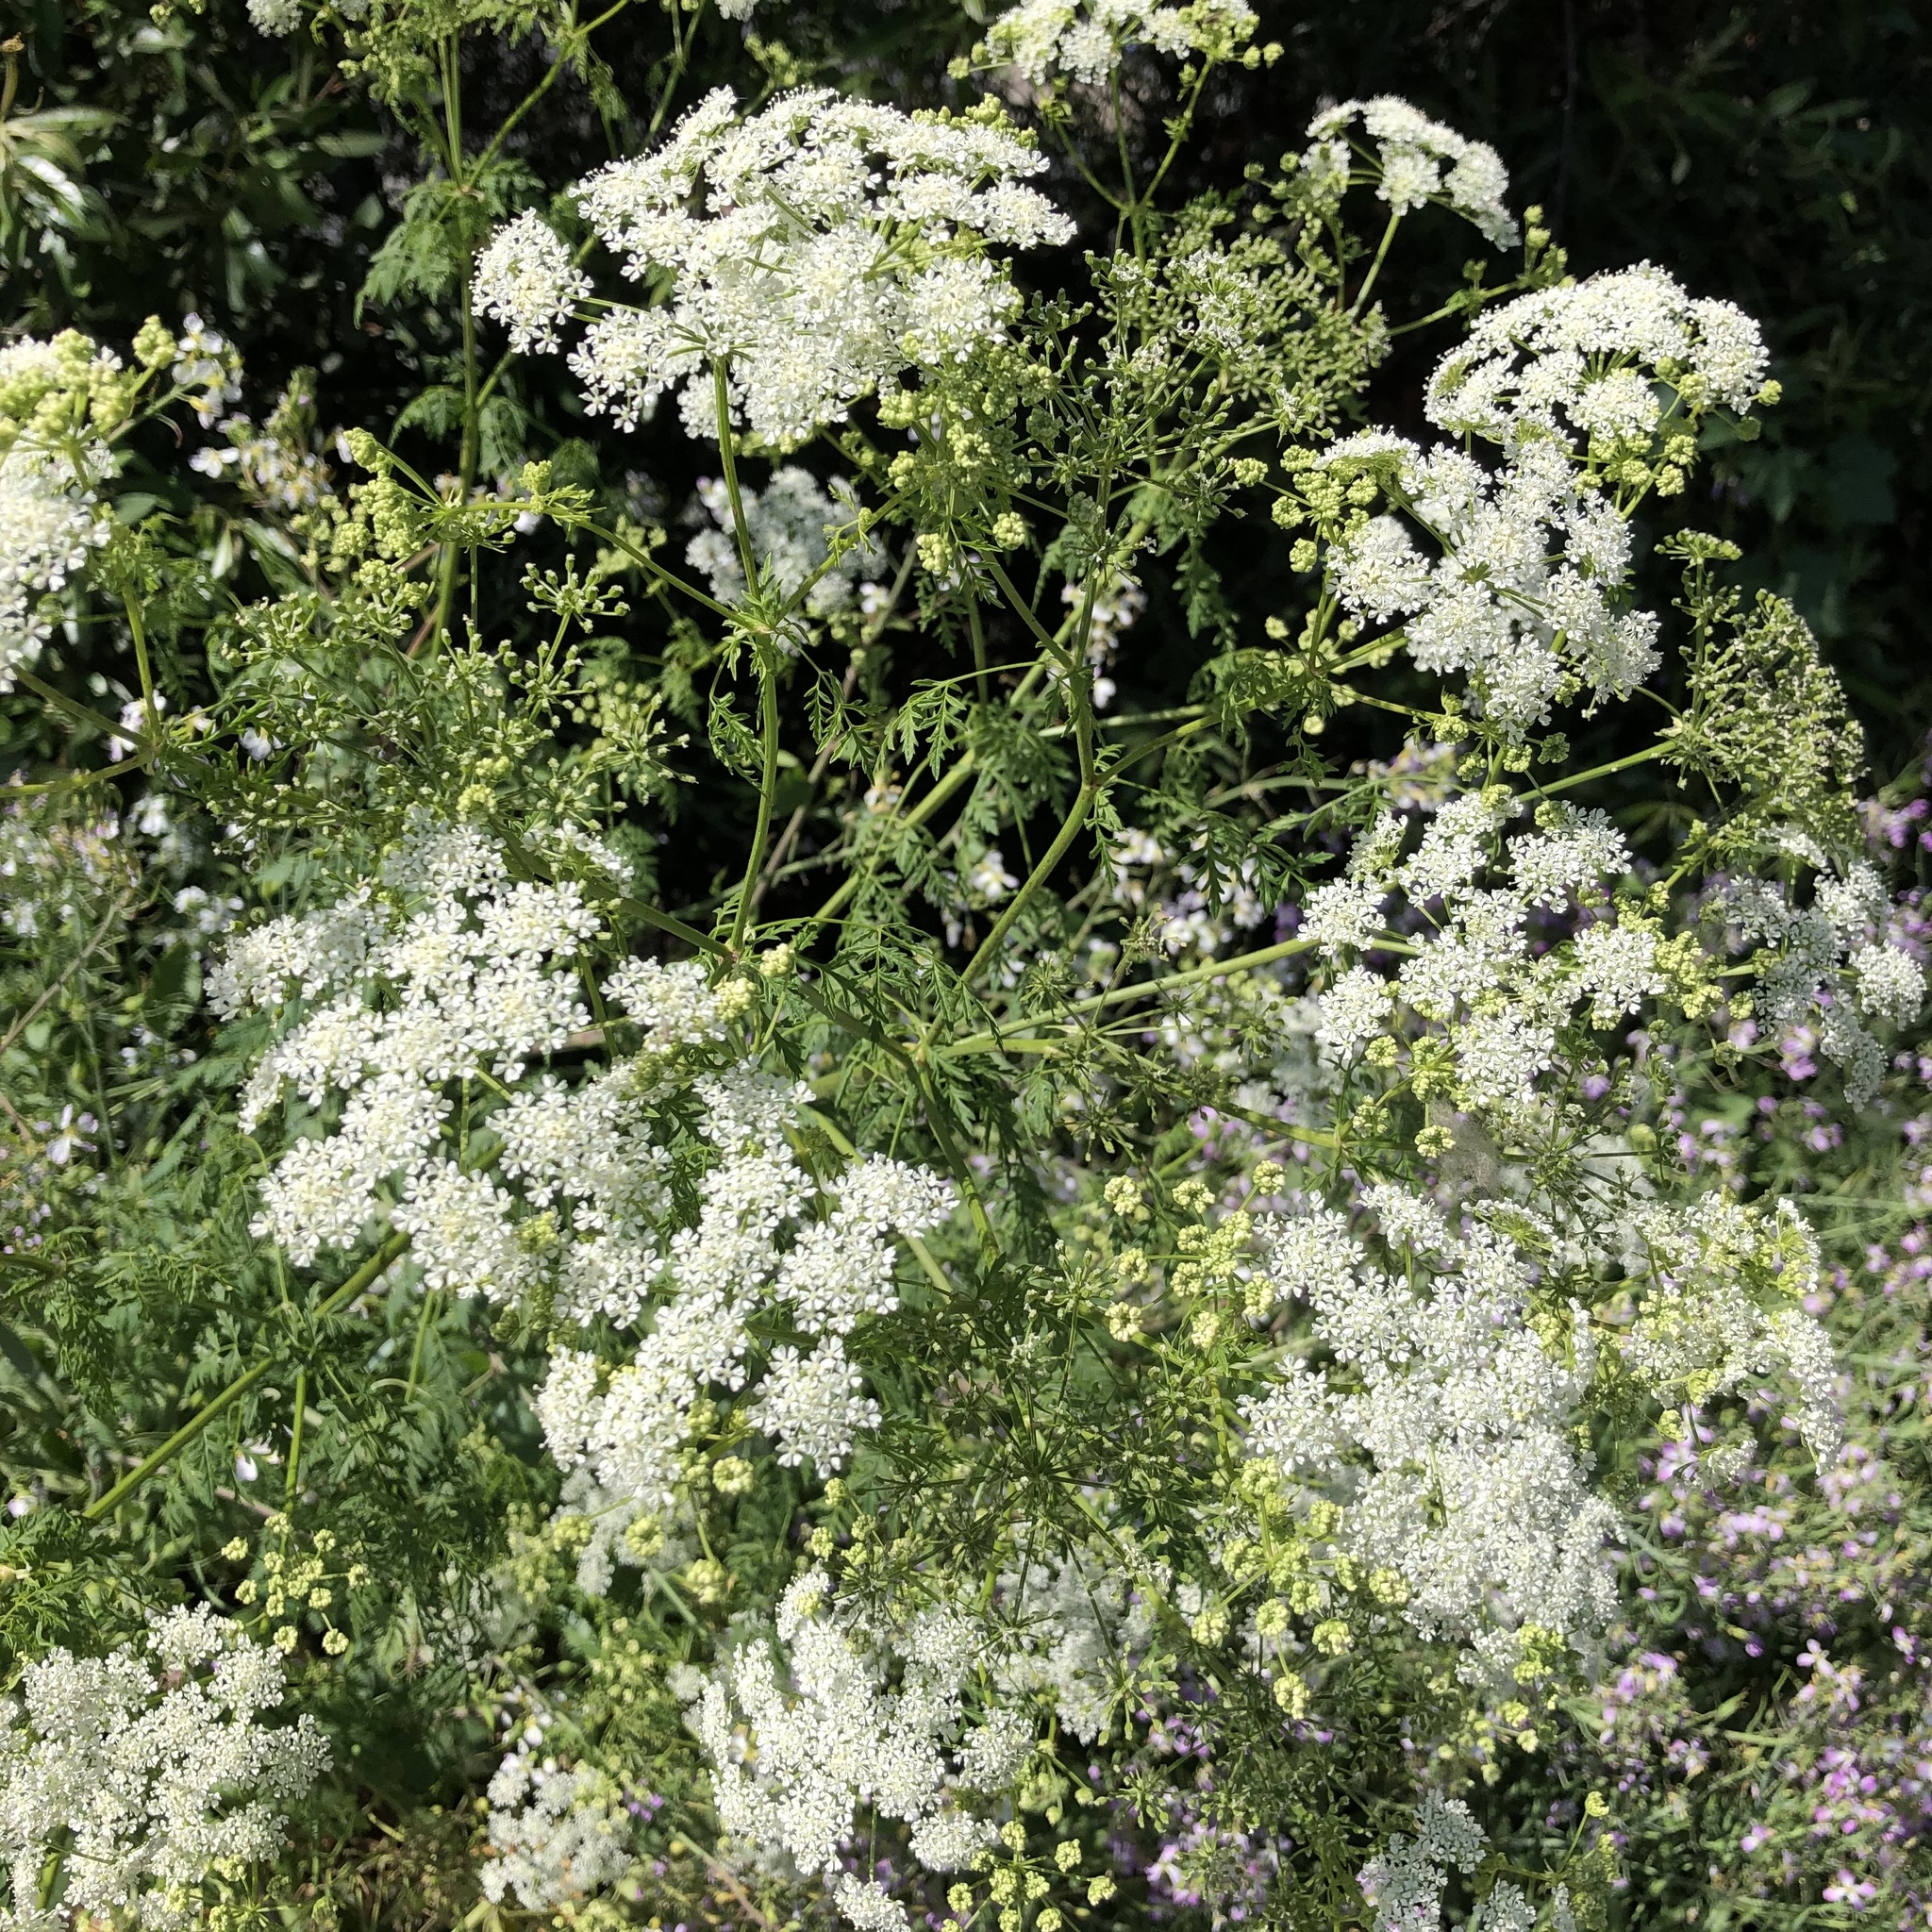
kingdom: Plantae
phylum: Tracheophyta
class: Magnoliopsida
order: Apiales
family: Apiaceae
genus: Conium
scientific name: Conium maculatum
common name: Hemlock
